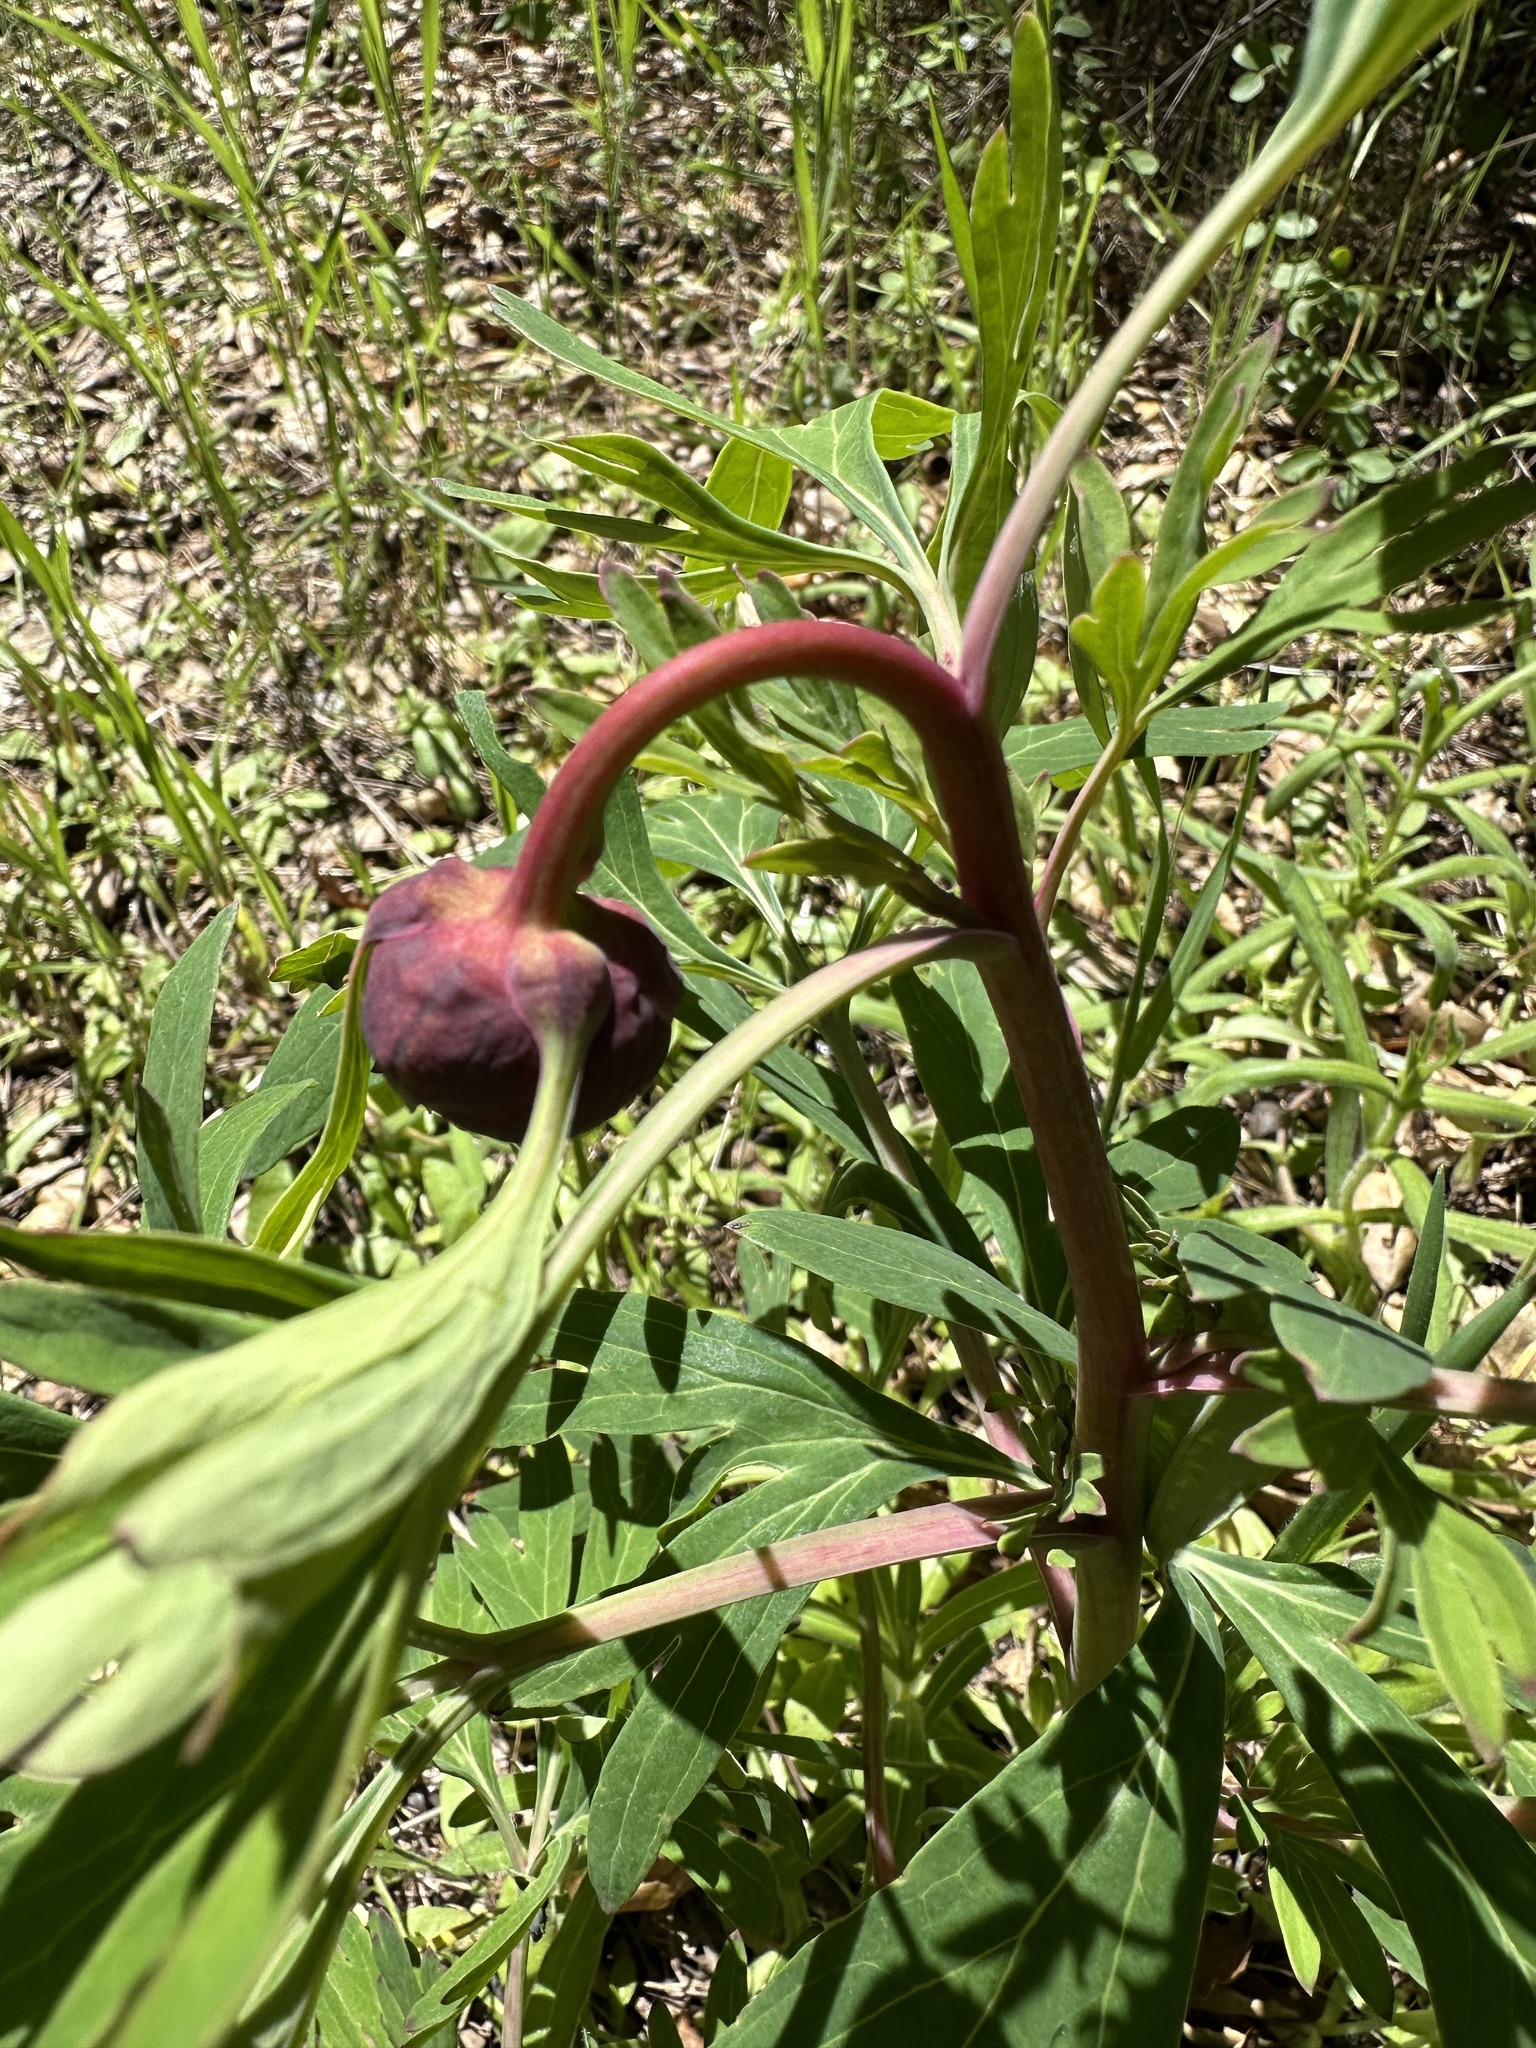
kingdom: Plantae
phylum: Tracheophyta
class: Magnoliopsida
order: Saxifragales
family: Paeoniaceae
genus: Paeonia
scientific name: Paeonia californica
